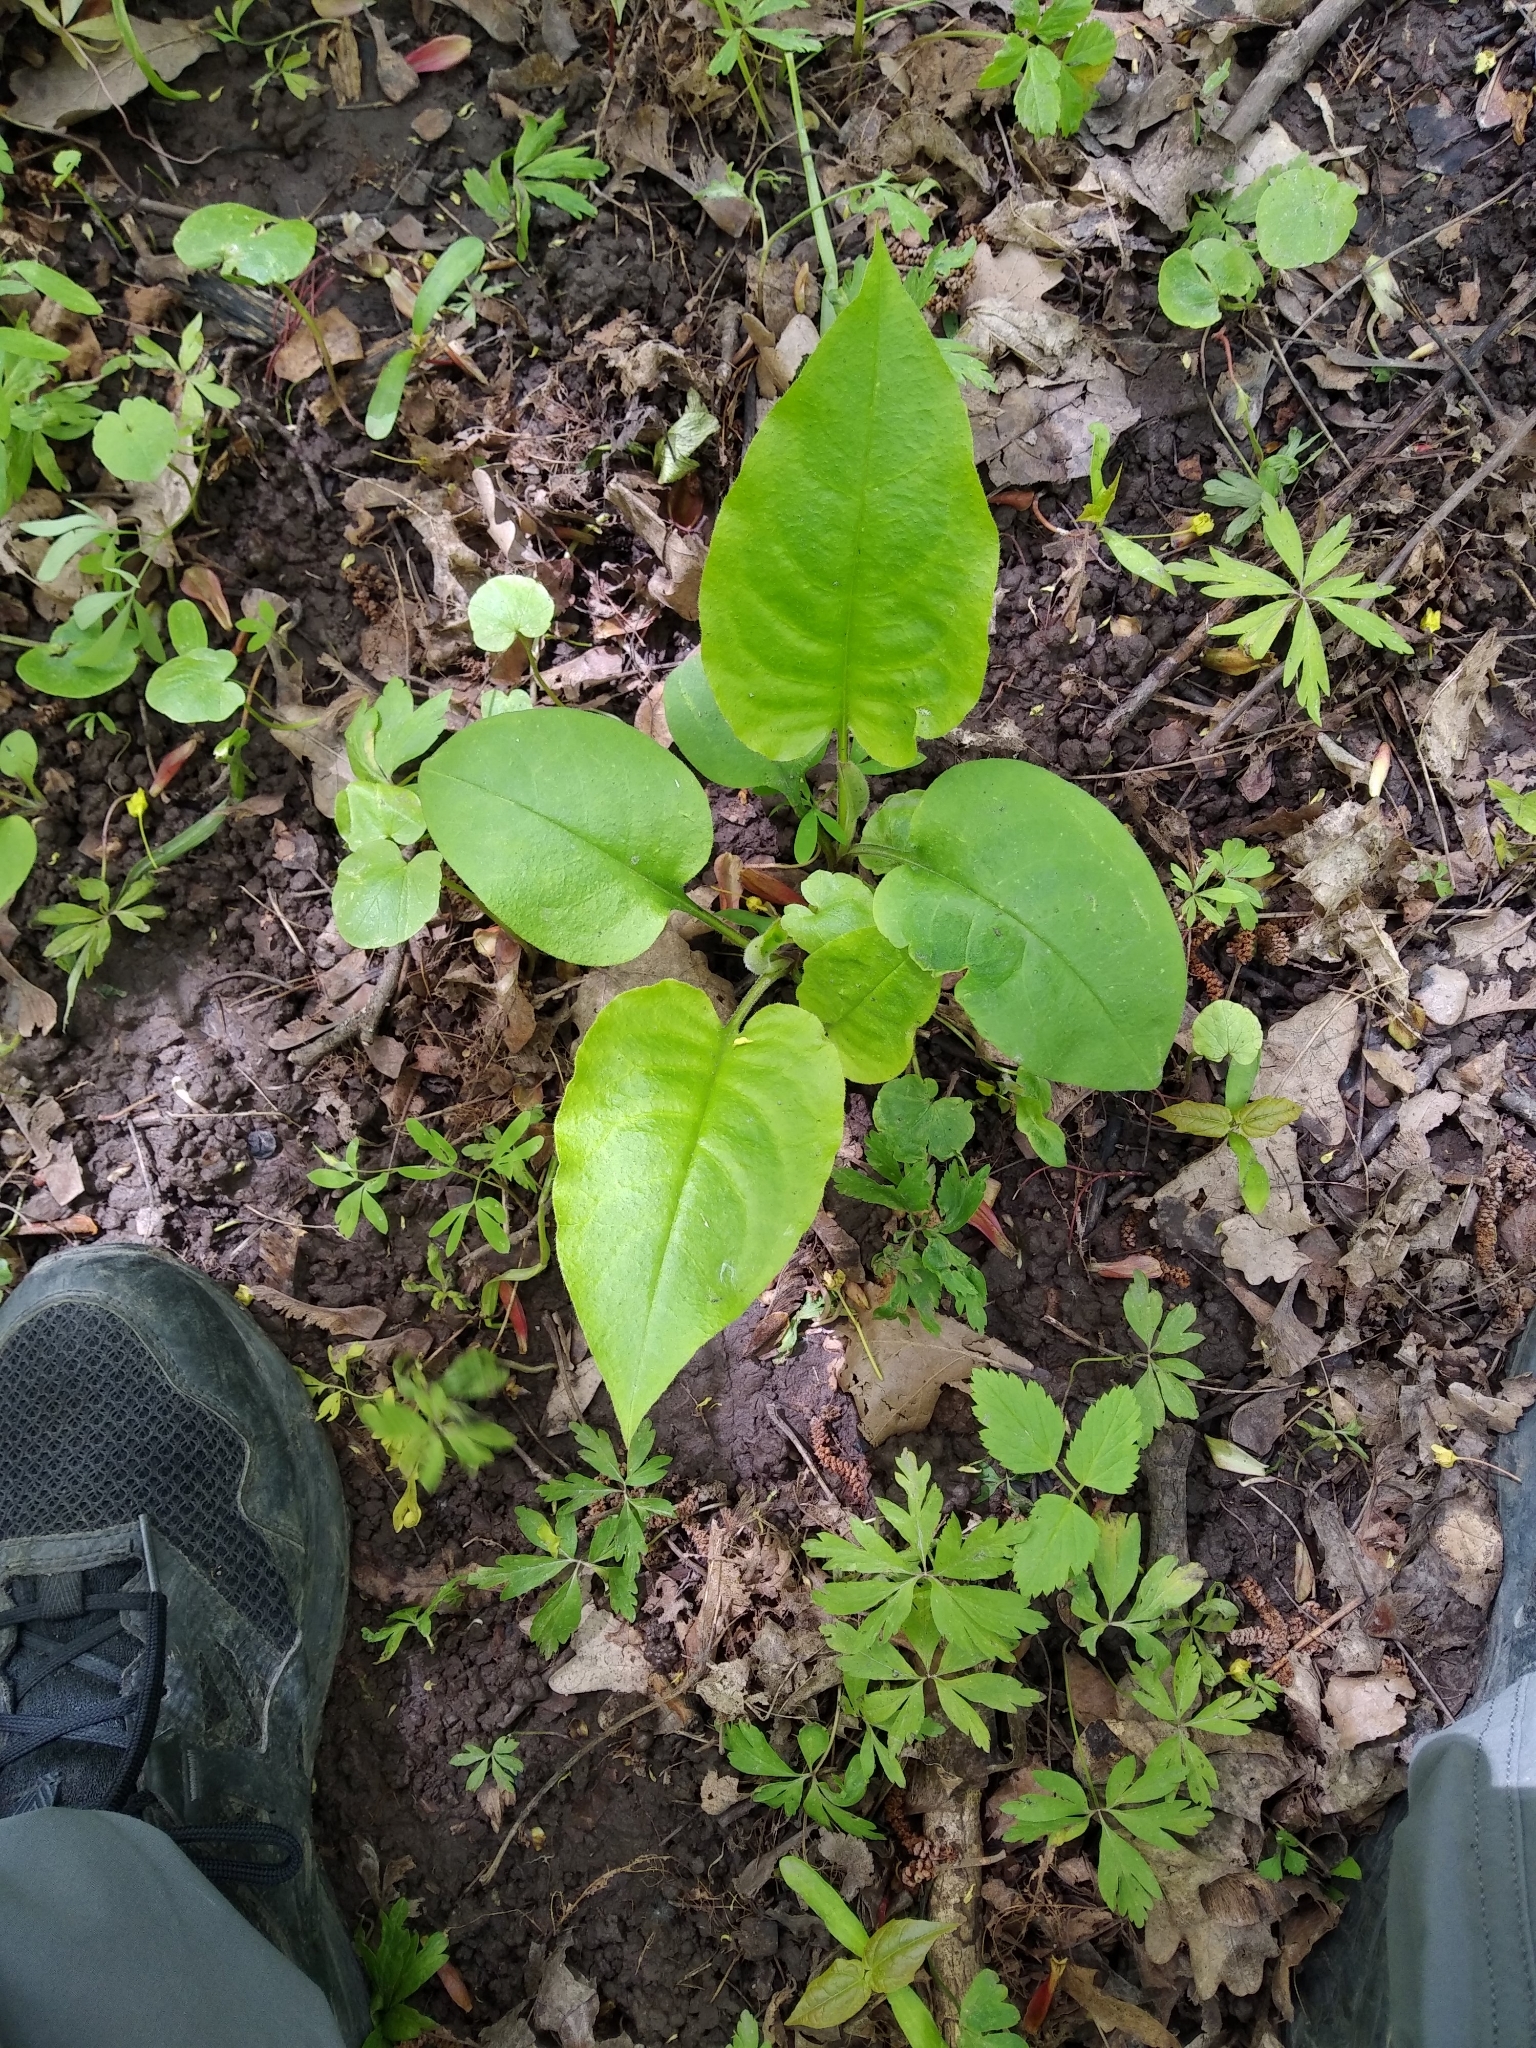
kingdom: Plantae
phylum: Tracheophyta
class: Magnoliopsida
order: Boraginales
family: Boraginaceae
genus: Pulmonaria
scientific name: Pulmonaria obscura
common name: Suffolk lungwort
